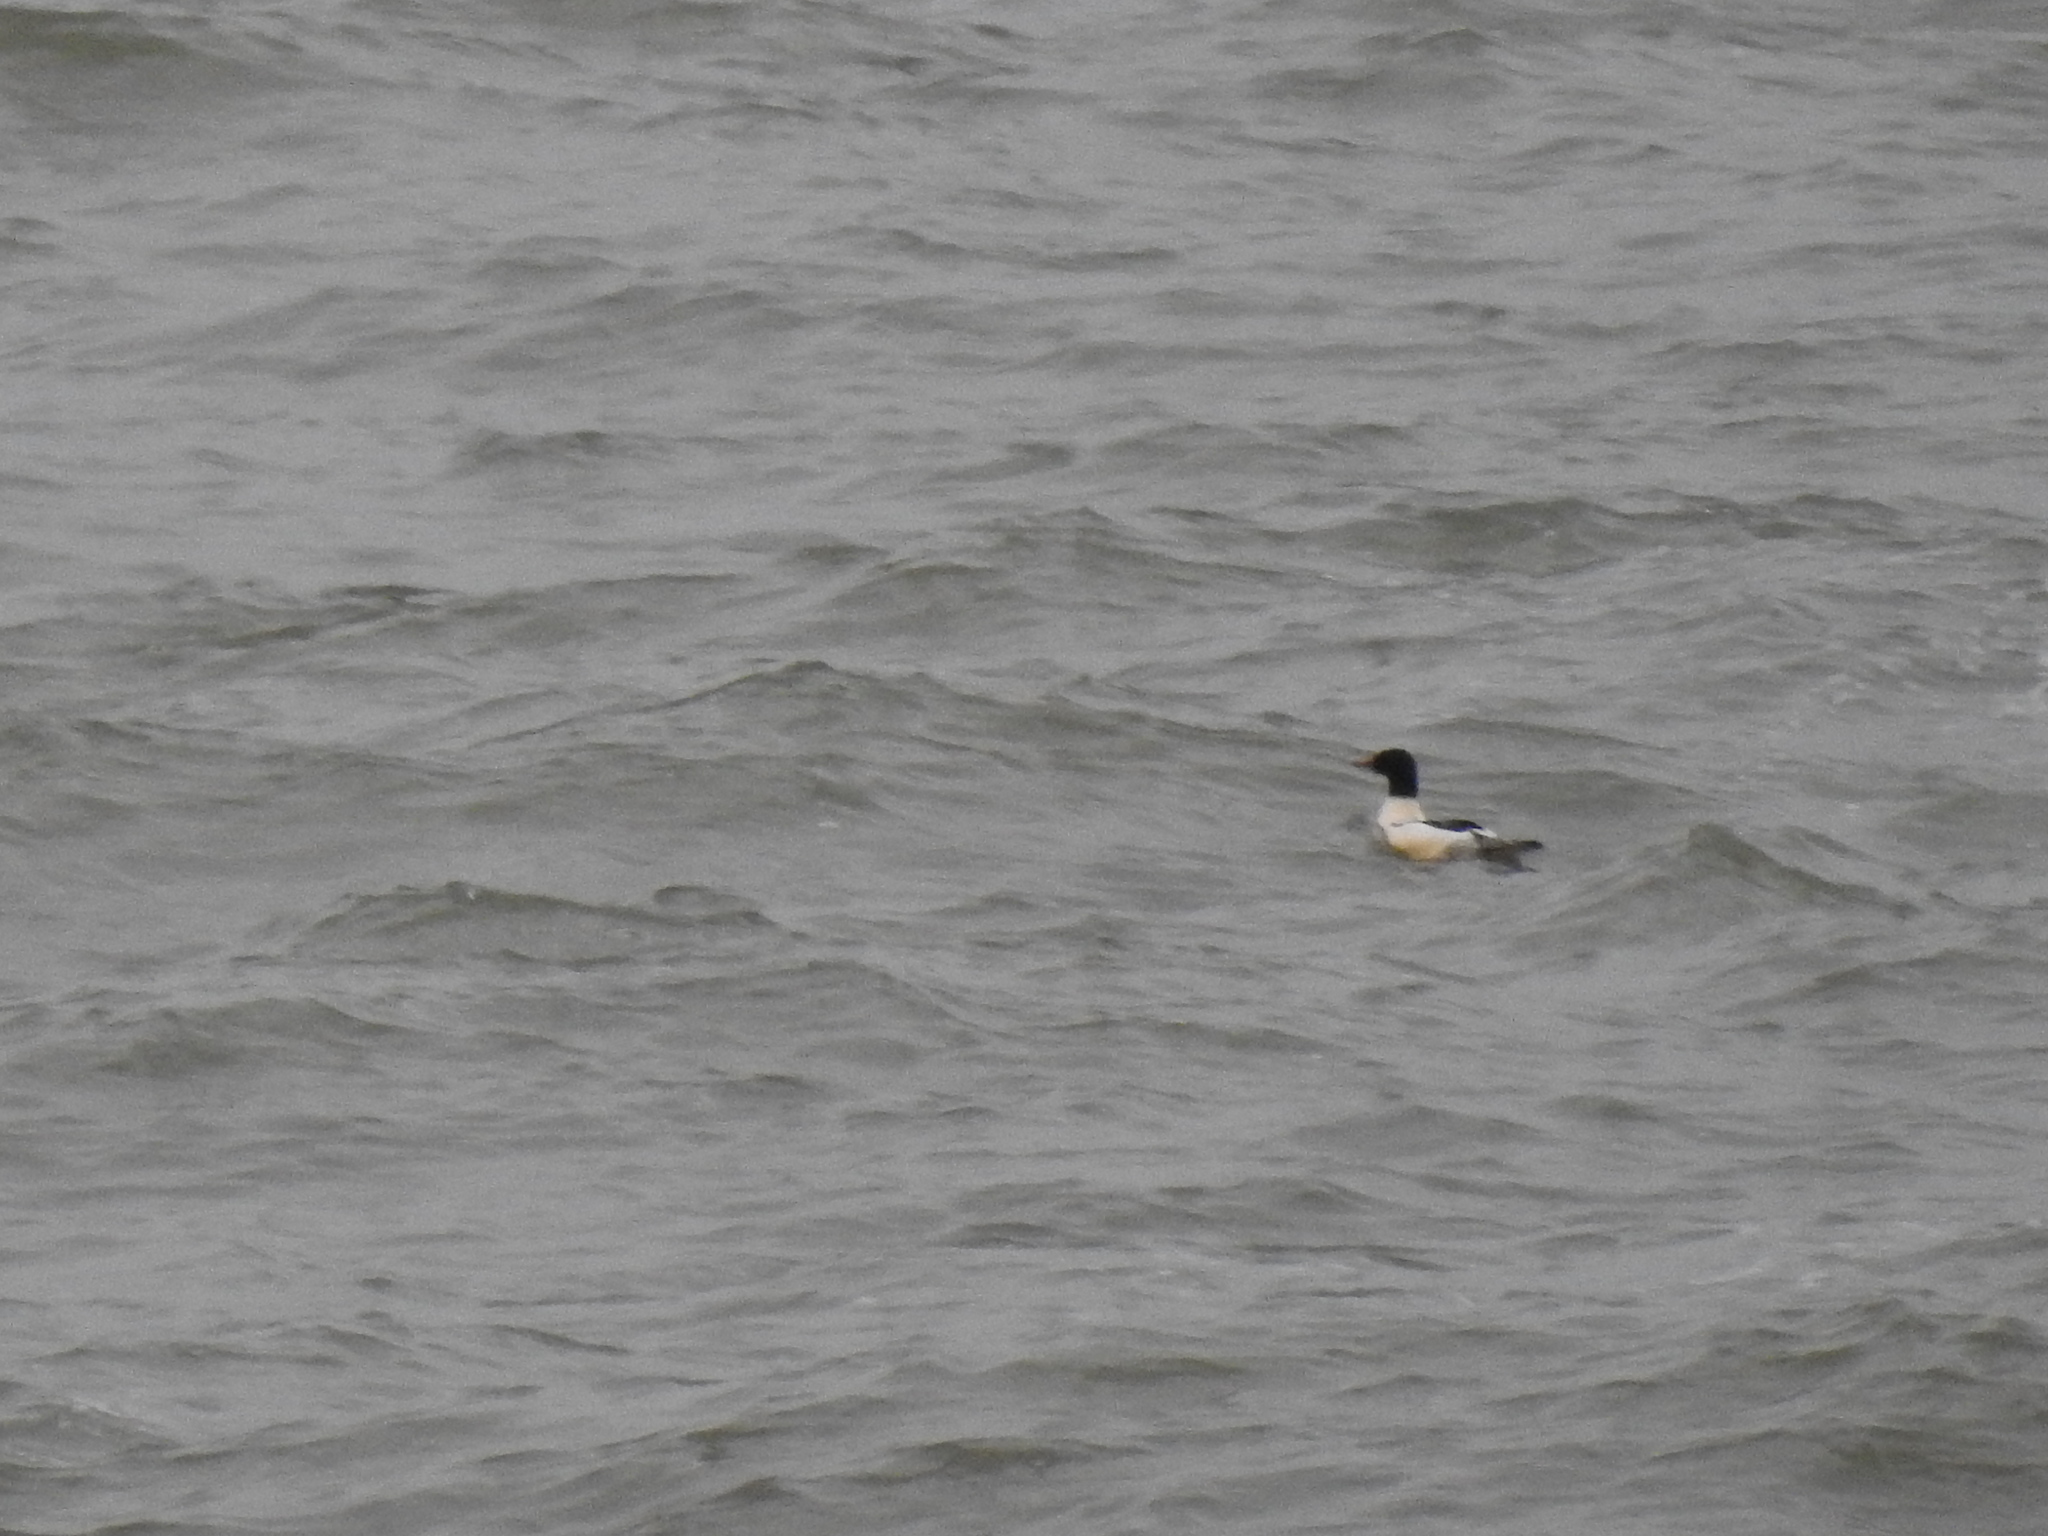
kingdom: Animalia
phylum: Chordata
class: Aves
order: Anseriformes
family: Anatidae
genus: Mergus
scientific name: Mergus merganser
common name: Common merganser
